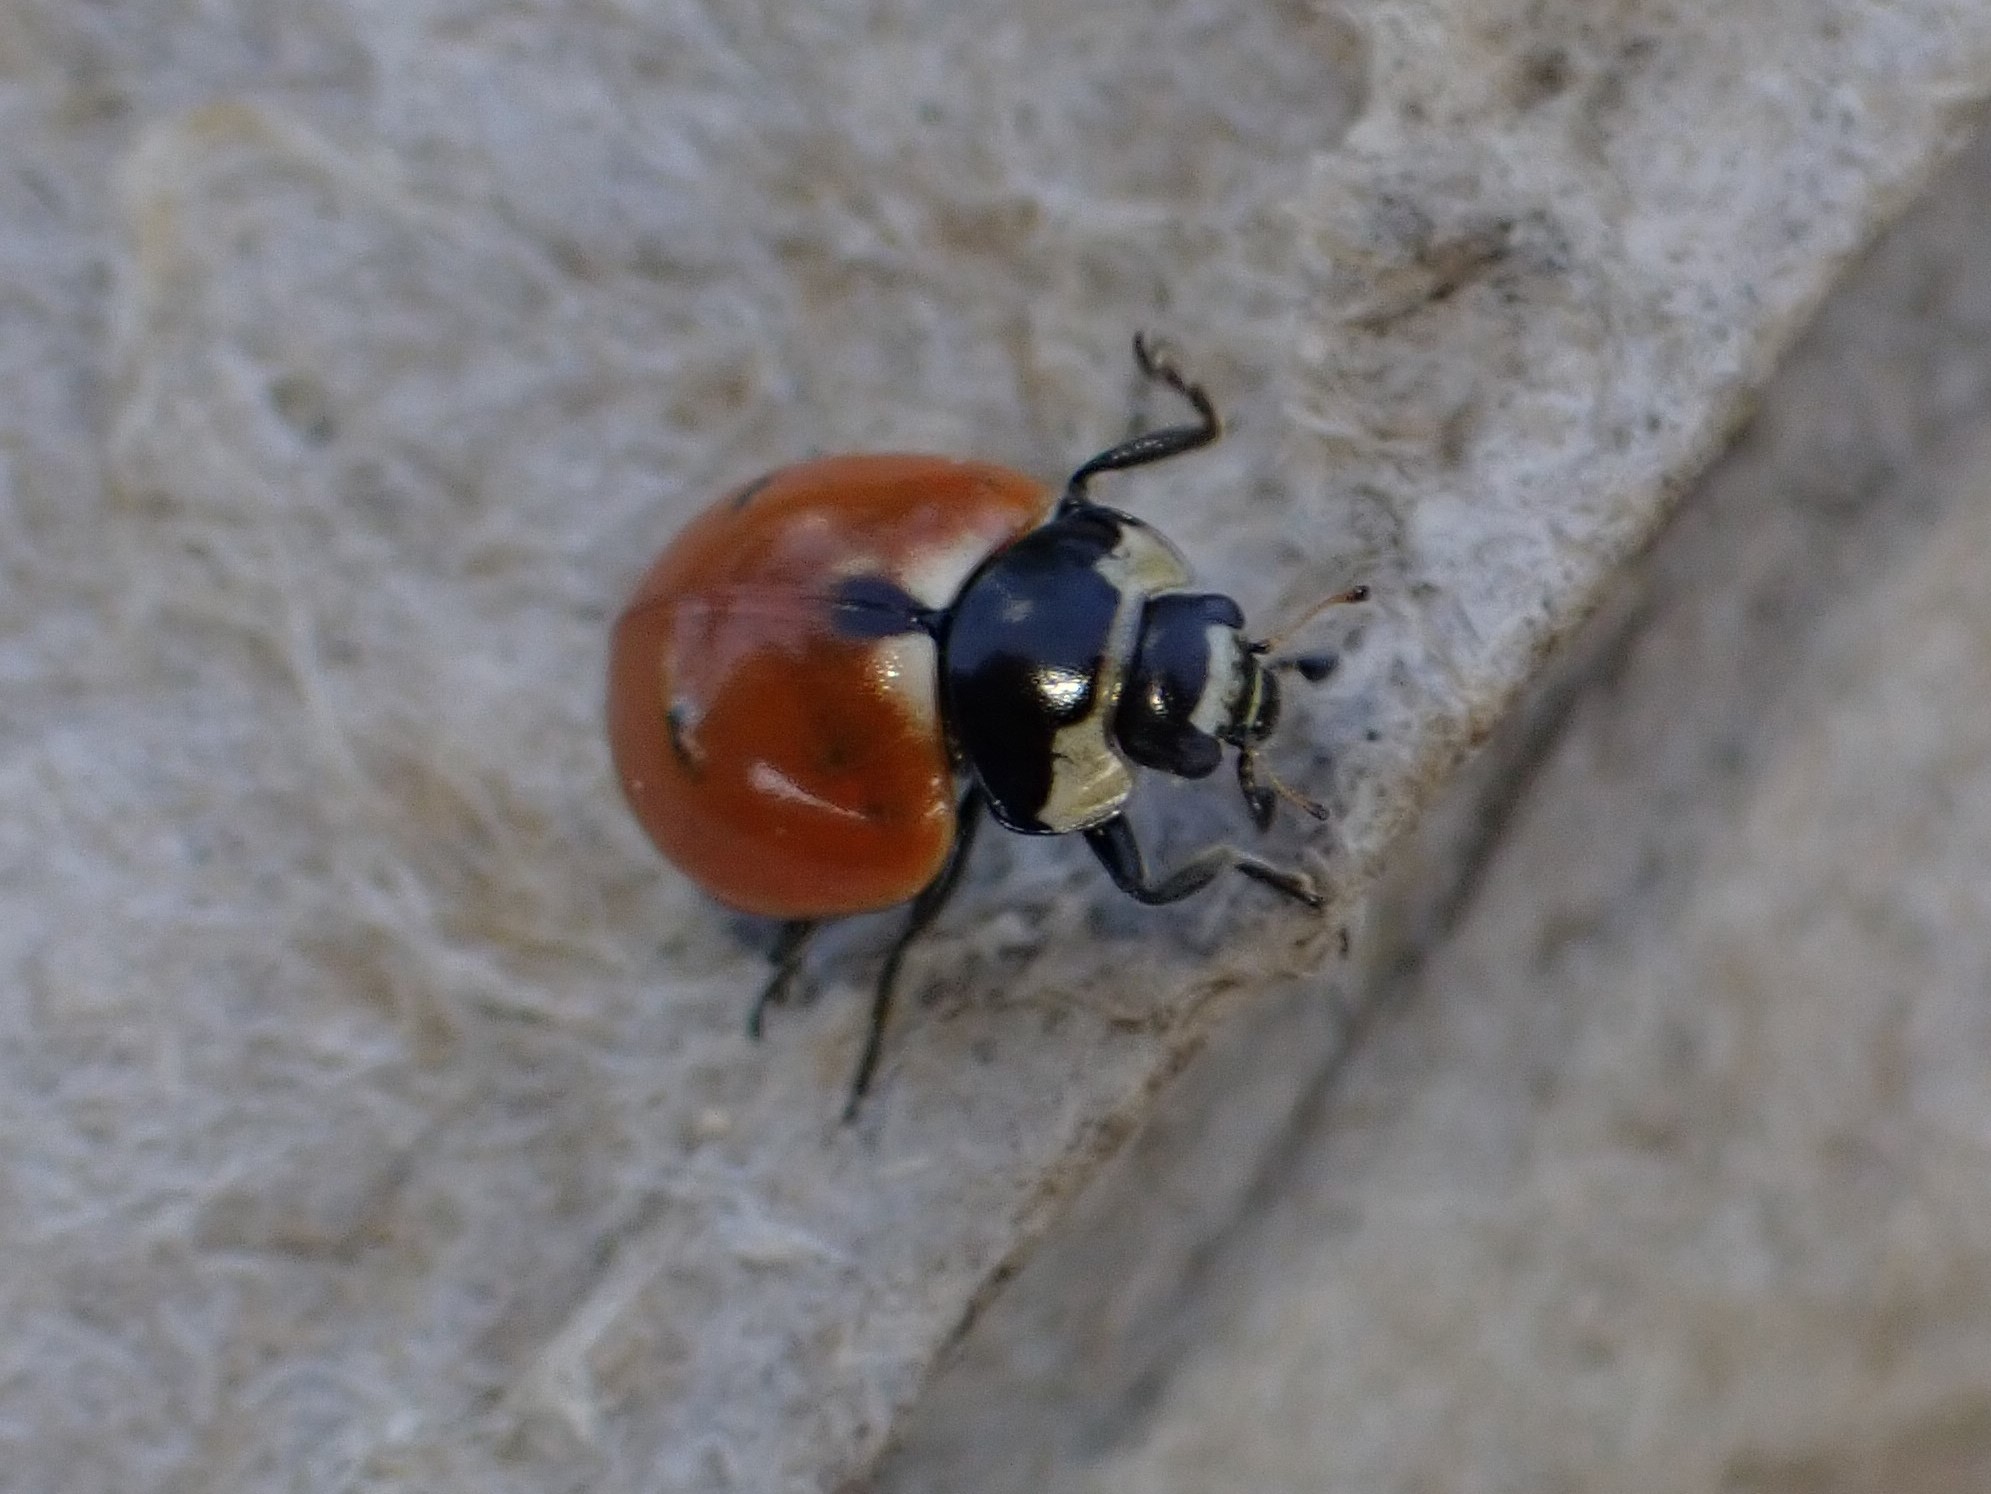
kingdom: Animalia
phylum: Arthropoda
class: Insecta
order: Coleoptera
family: Coccinellidae
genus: Coccinella
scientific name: Coccinella trifasciata
